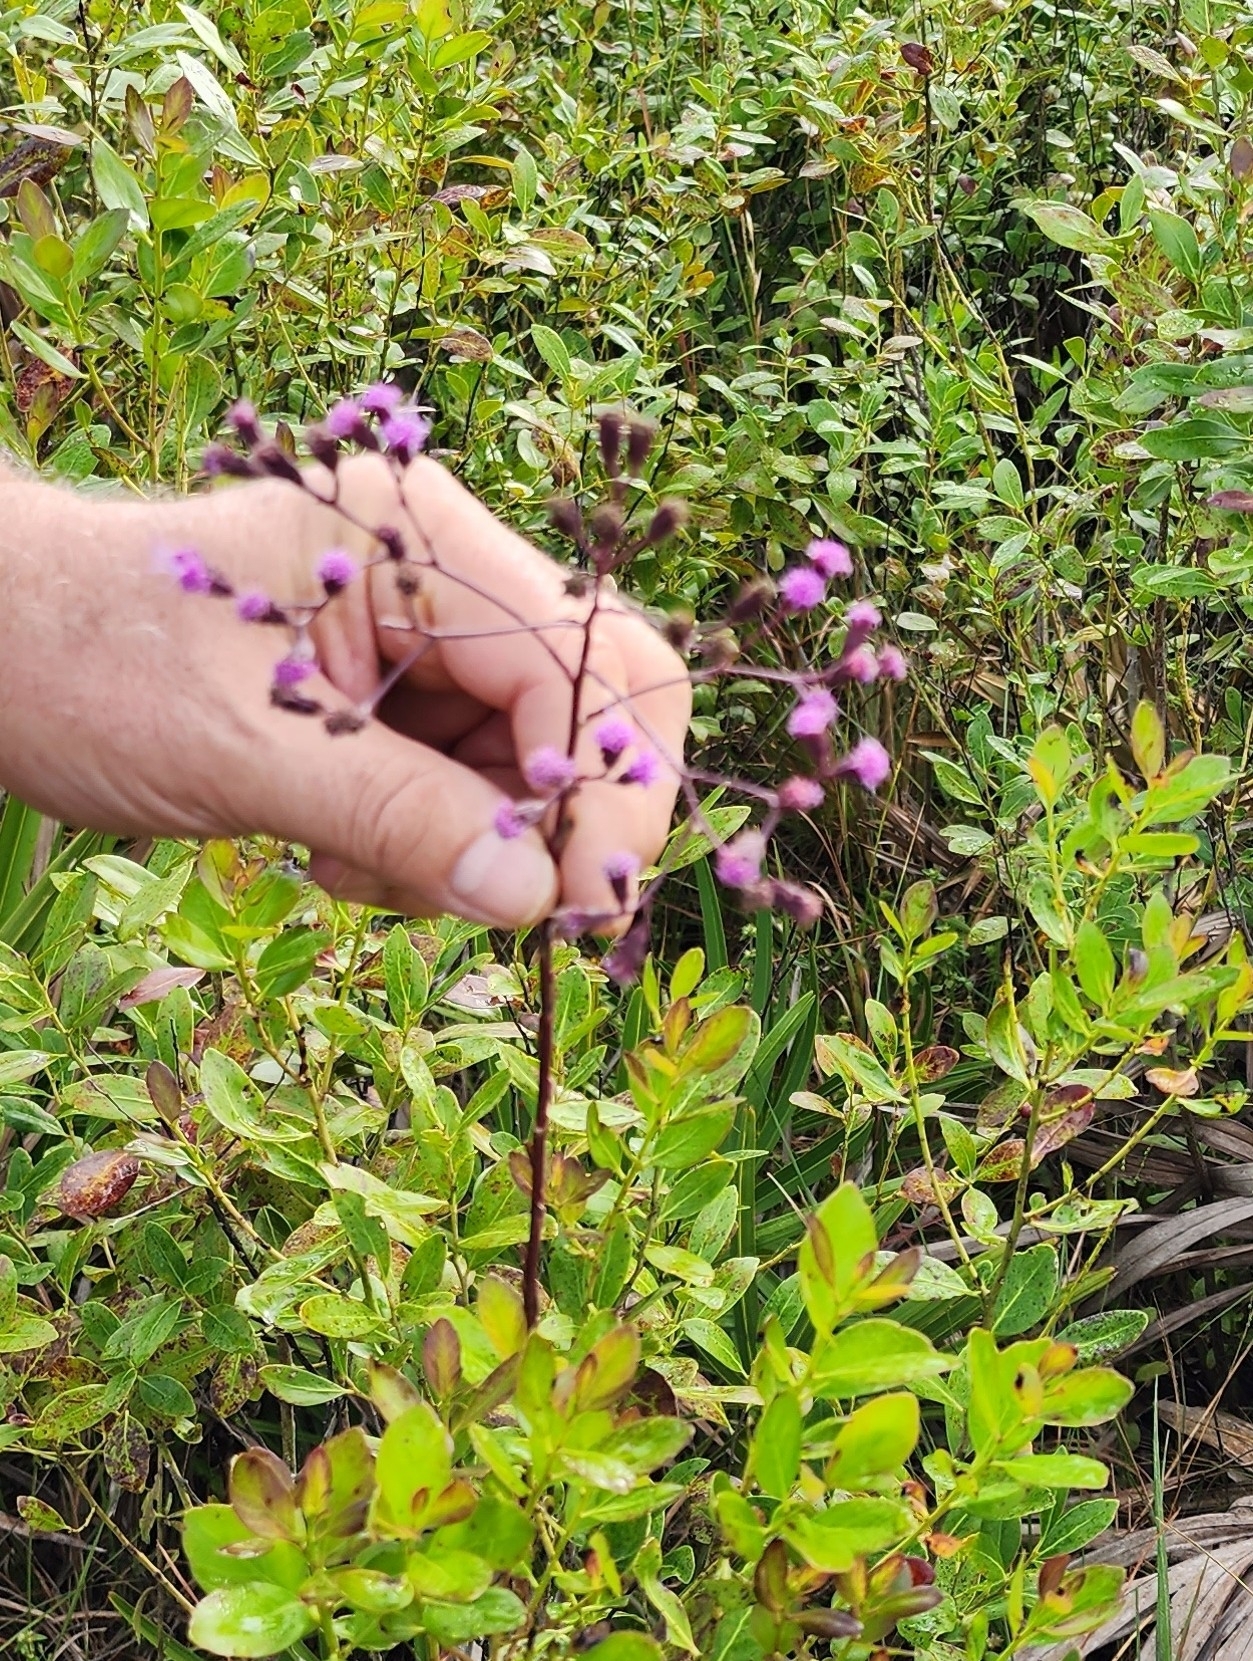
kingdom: Plantae
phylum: Tracheophyta
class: Magnoliopsida
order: Asterales
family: Asteraceae
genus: Carphephorus
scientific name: Carphephorus
